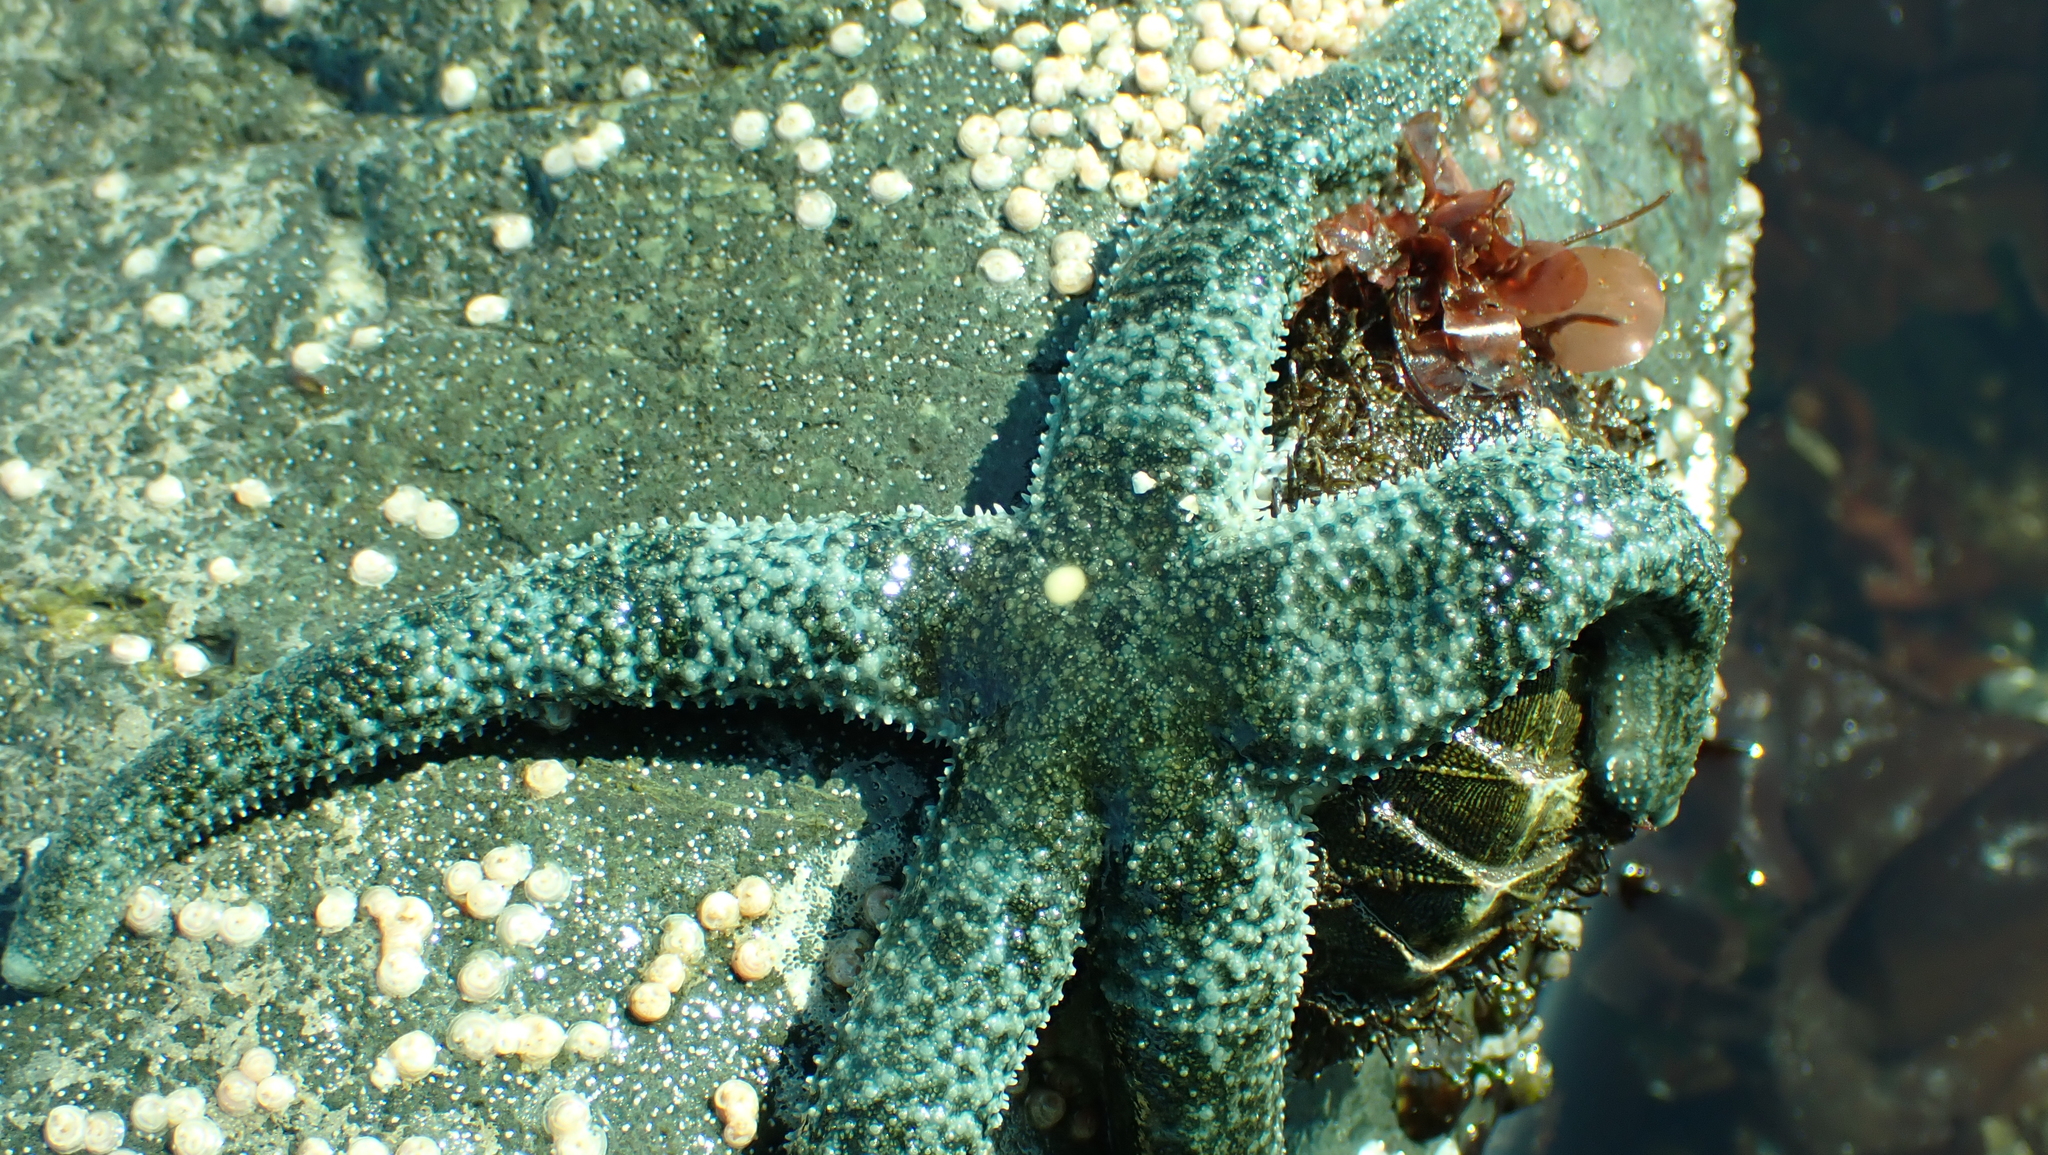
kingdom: Animalia
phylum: Echinodermata
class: Asteroidea
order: Forcipulatida
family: Asteriidae
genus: Evasterias
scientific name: Evasterias troschelii
